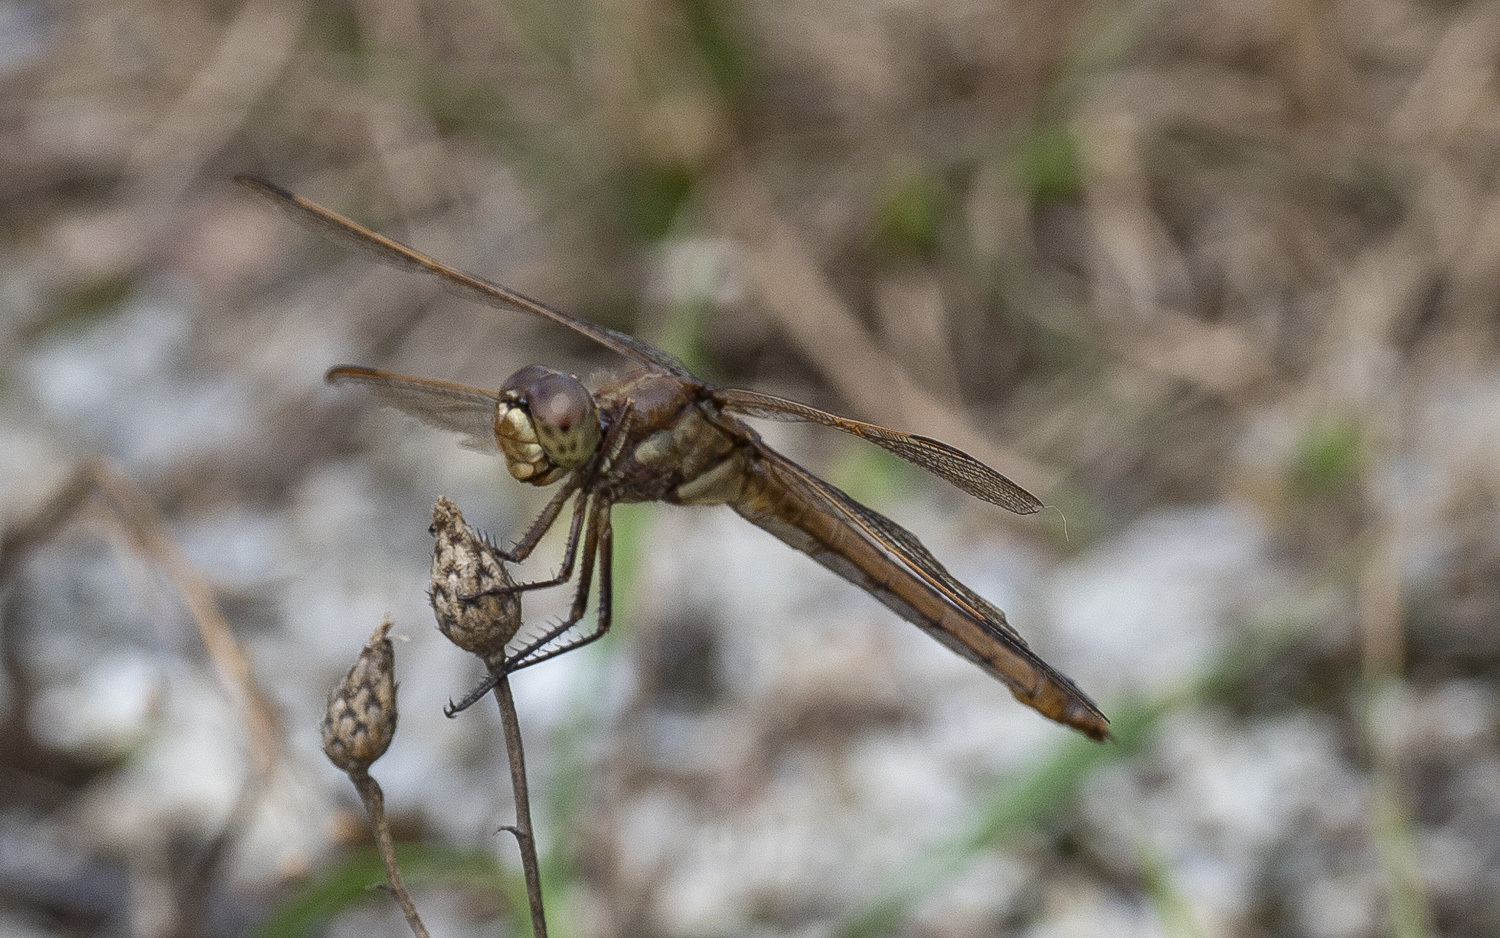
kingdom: Animalia
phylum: Arthropoda
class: Insecta
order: Odonata
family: Libellulidae
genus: Libellula
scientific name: Libellula auripennis
